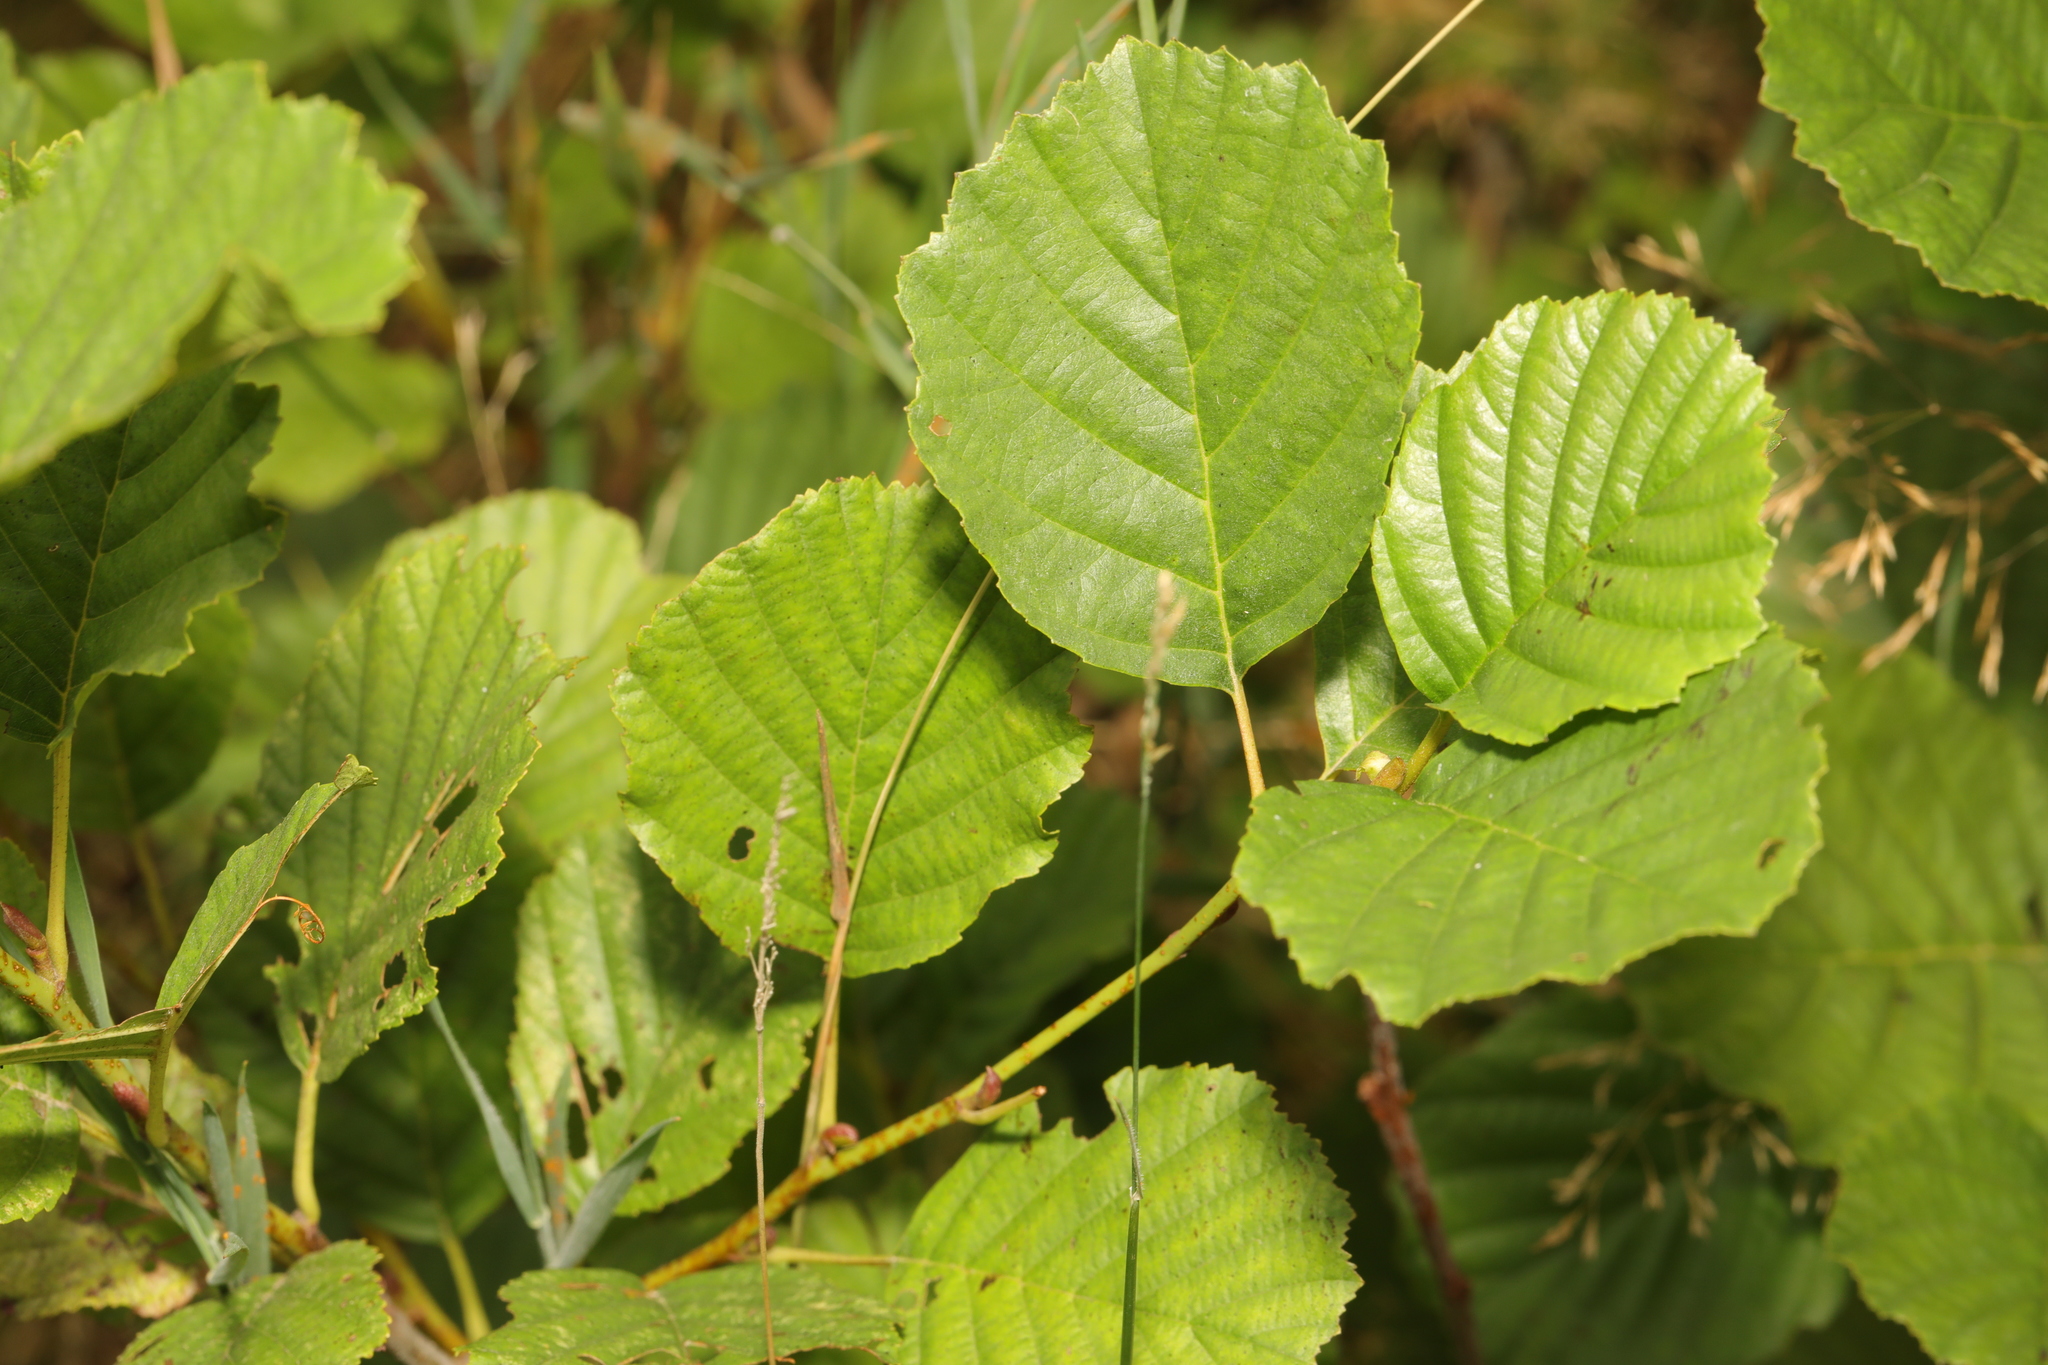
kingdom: Plantae
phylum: Tracheophyta
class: Magnoliopsida
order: Fagales
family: Betulaceae
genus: Alnus
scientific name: Alnus glutinosa
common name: Black alder
